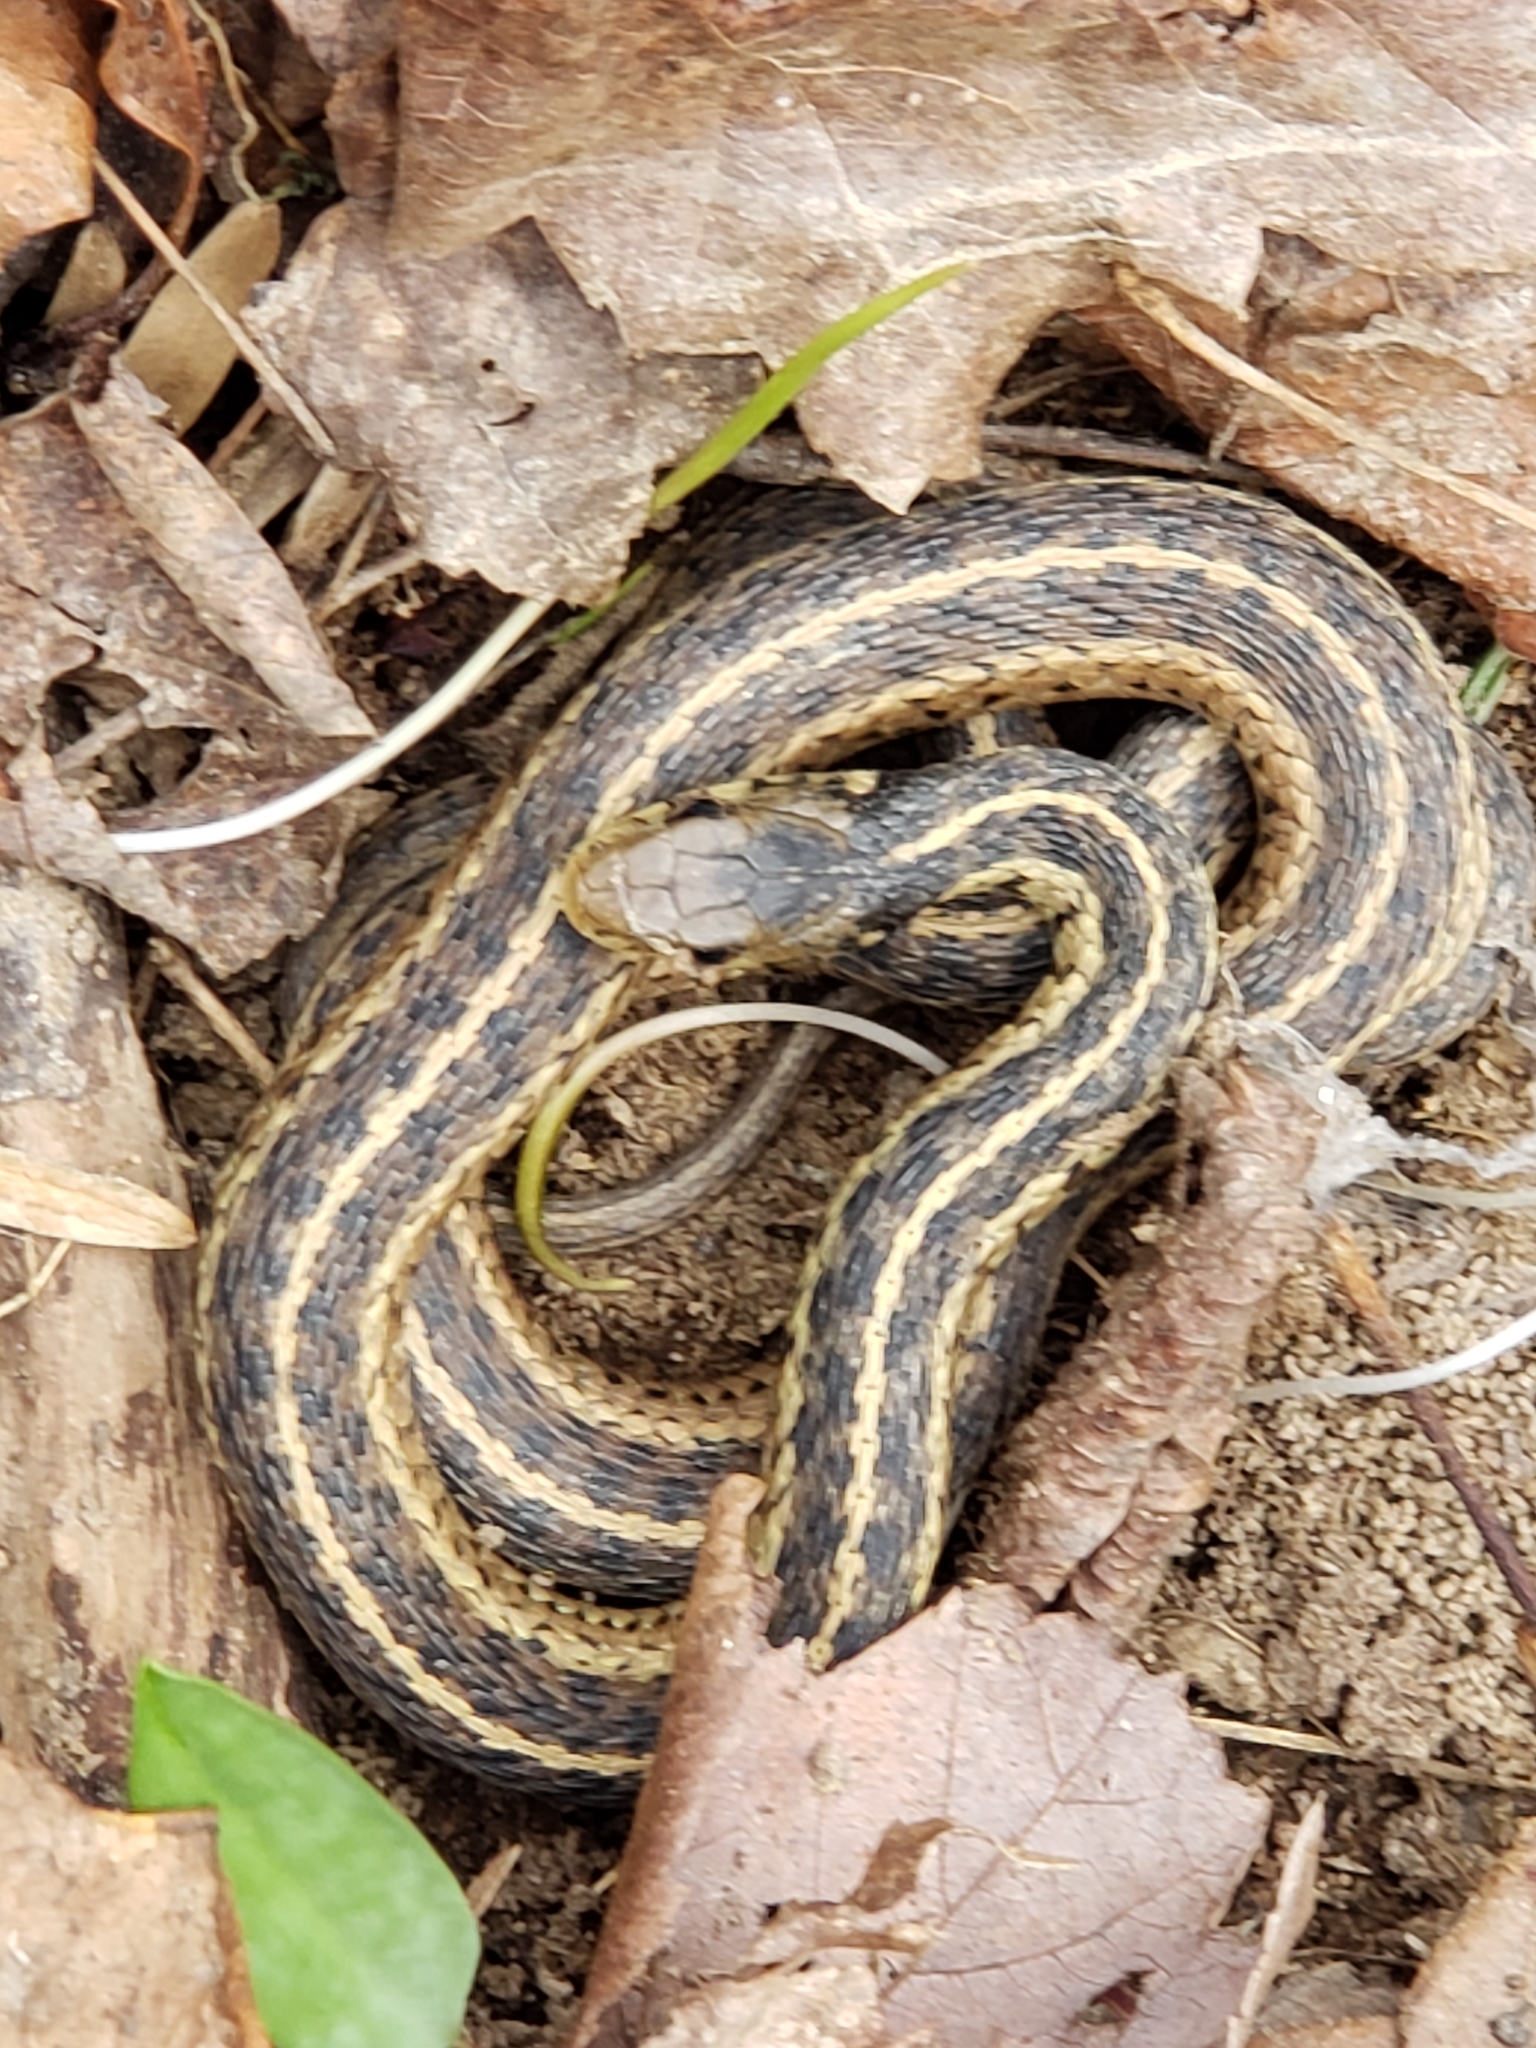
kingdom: Animalia
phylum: Chordata
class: Squamata
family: Colubridae
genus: Thamnophis
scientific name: Thamnophis sirtalis
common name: Common garter snake
